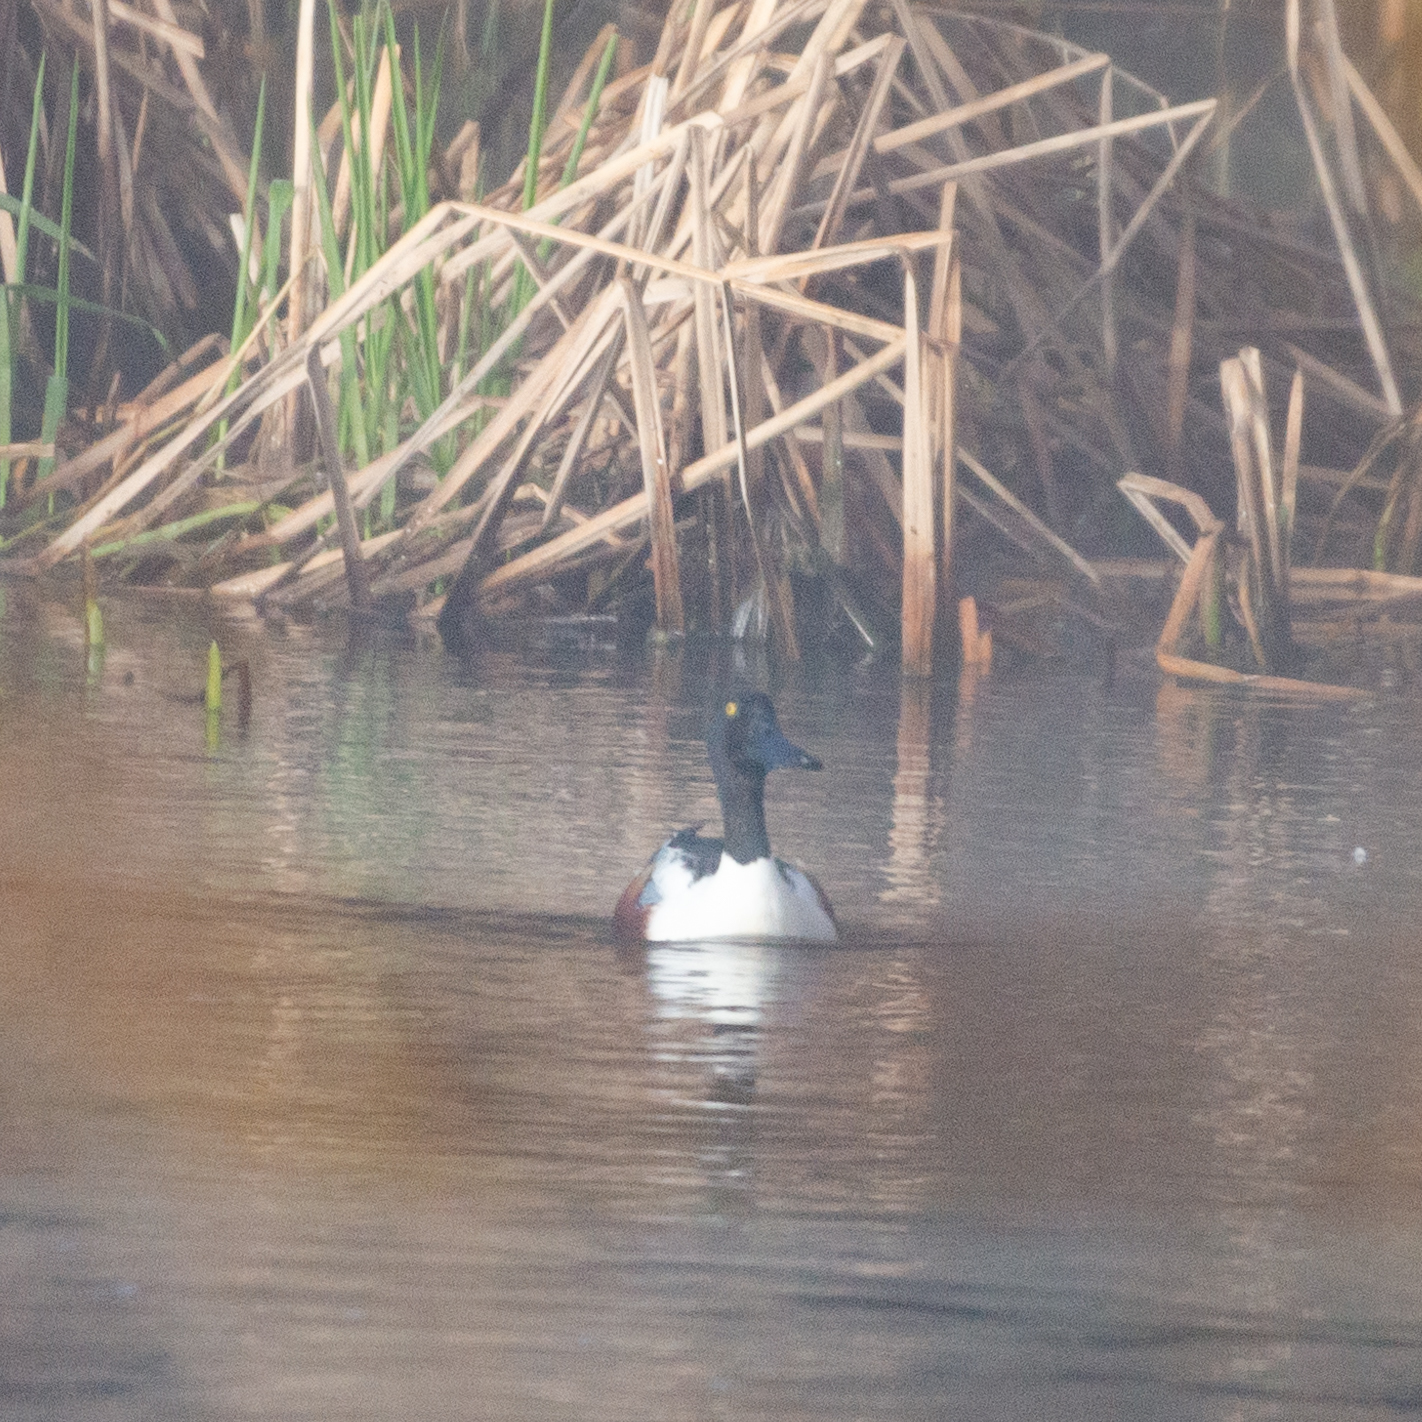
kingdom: Animalia
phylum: Chordata
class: Aves
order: Anseriformes
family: Anatidae
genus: Spatula
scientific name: Spatula clypeata
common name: Northern shoveler
